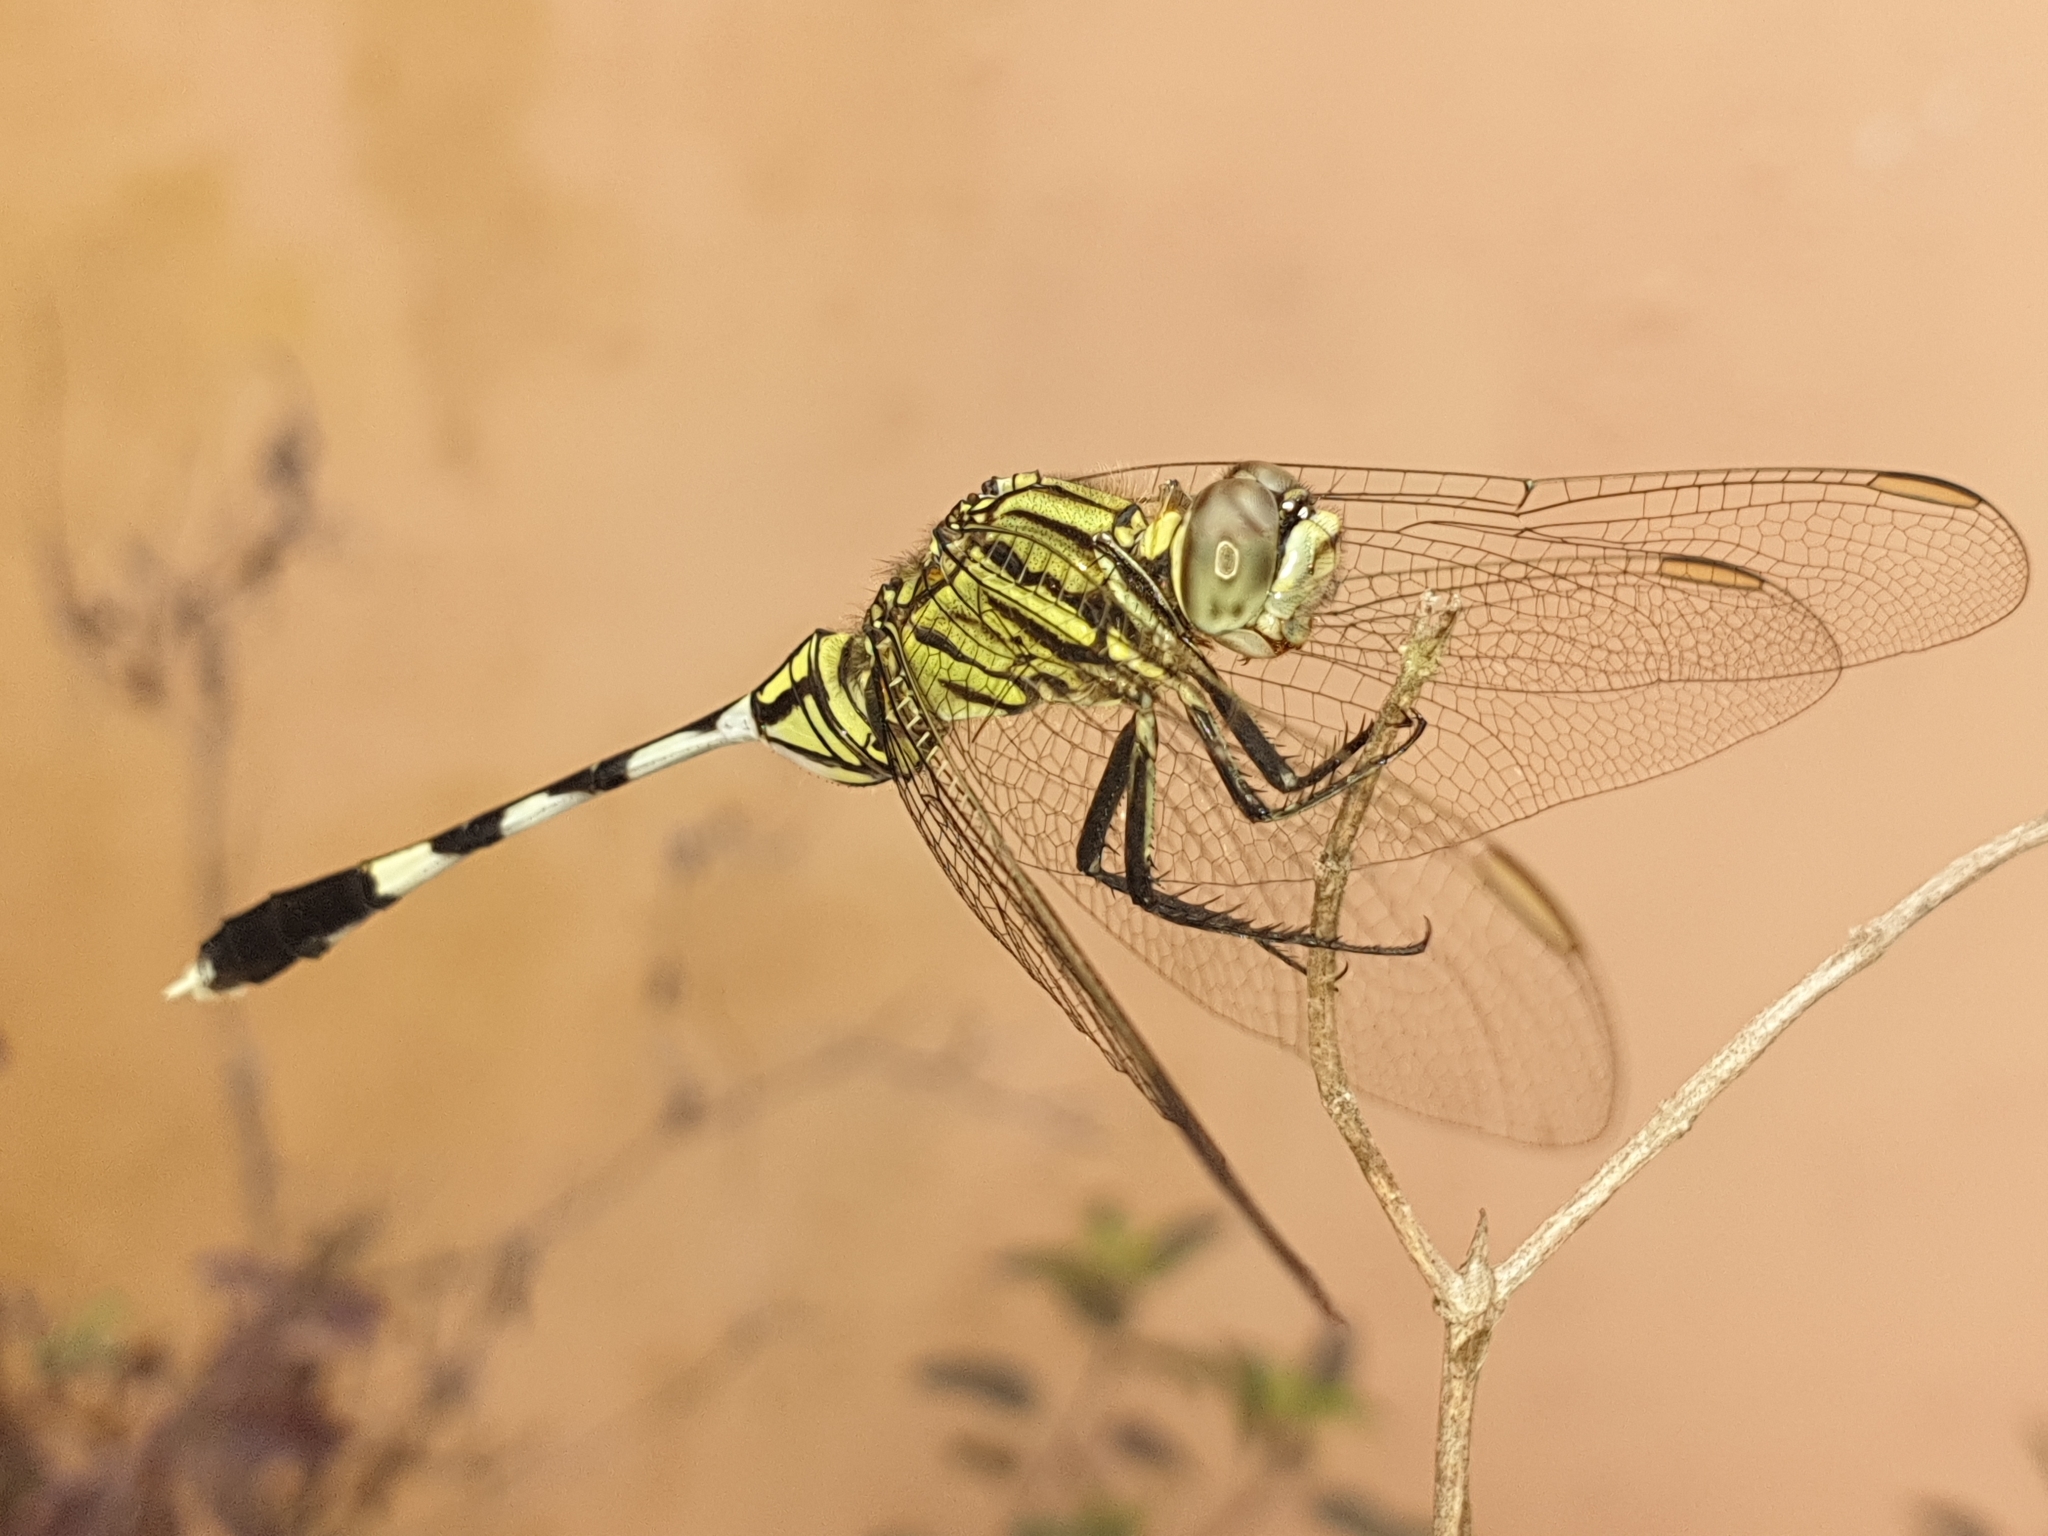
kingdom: Animalia
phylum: Arthropoda
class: Insecta
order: Odonata
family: Libellulidae
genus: Orthetrum
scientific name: Orthetrum sabina
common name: Slender skimmer
